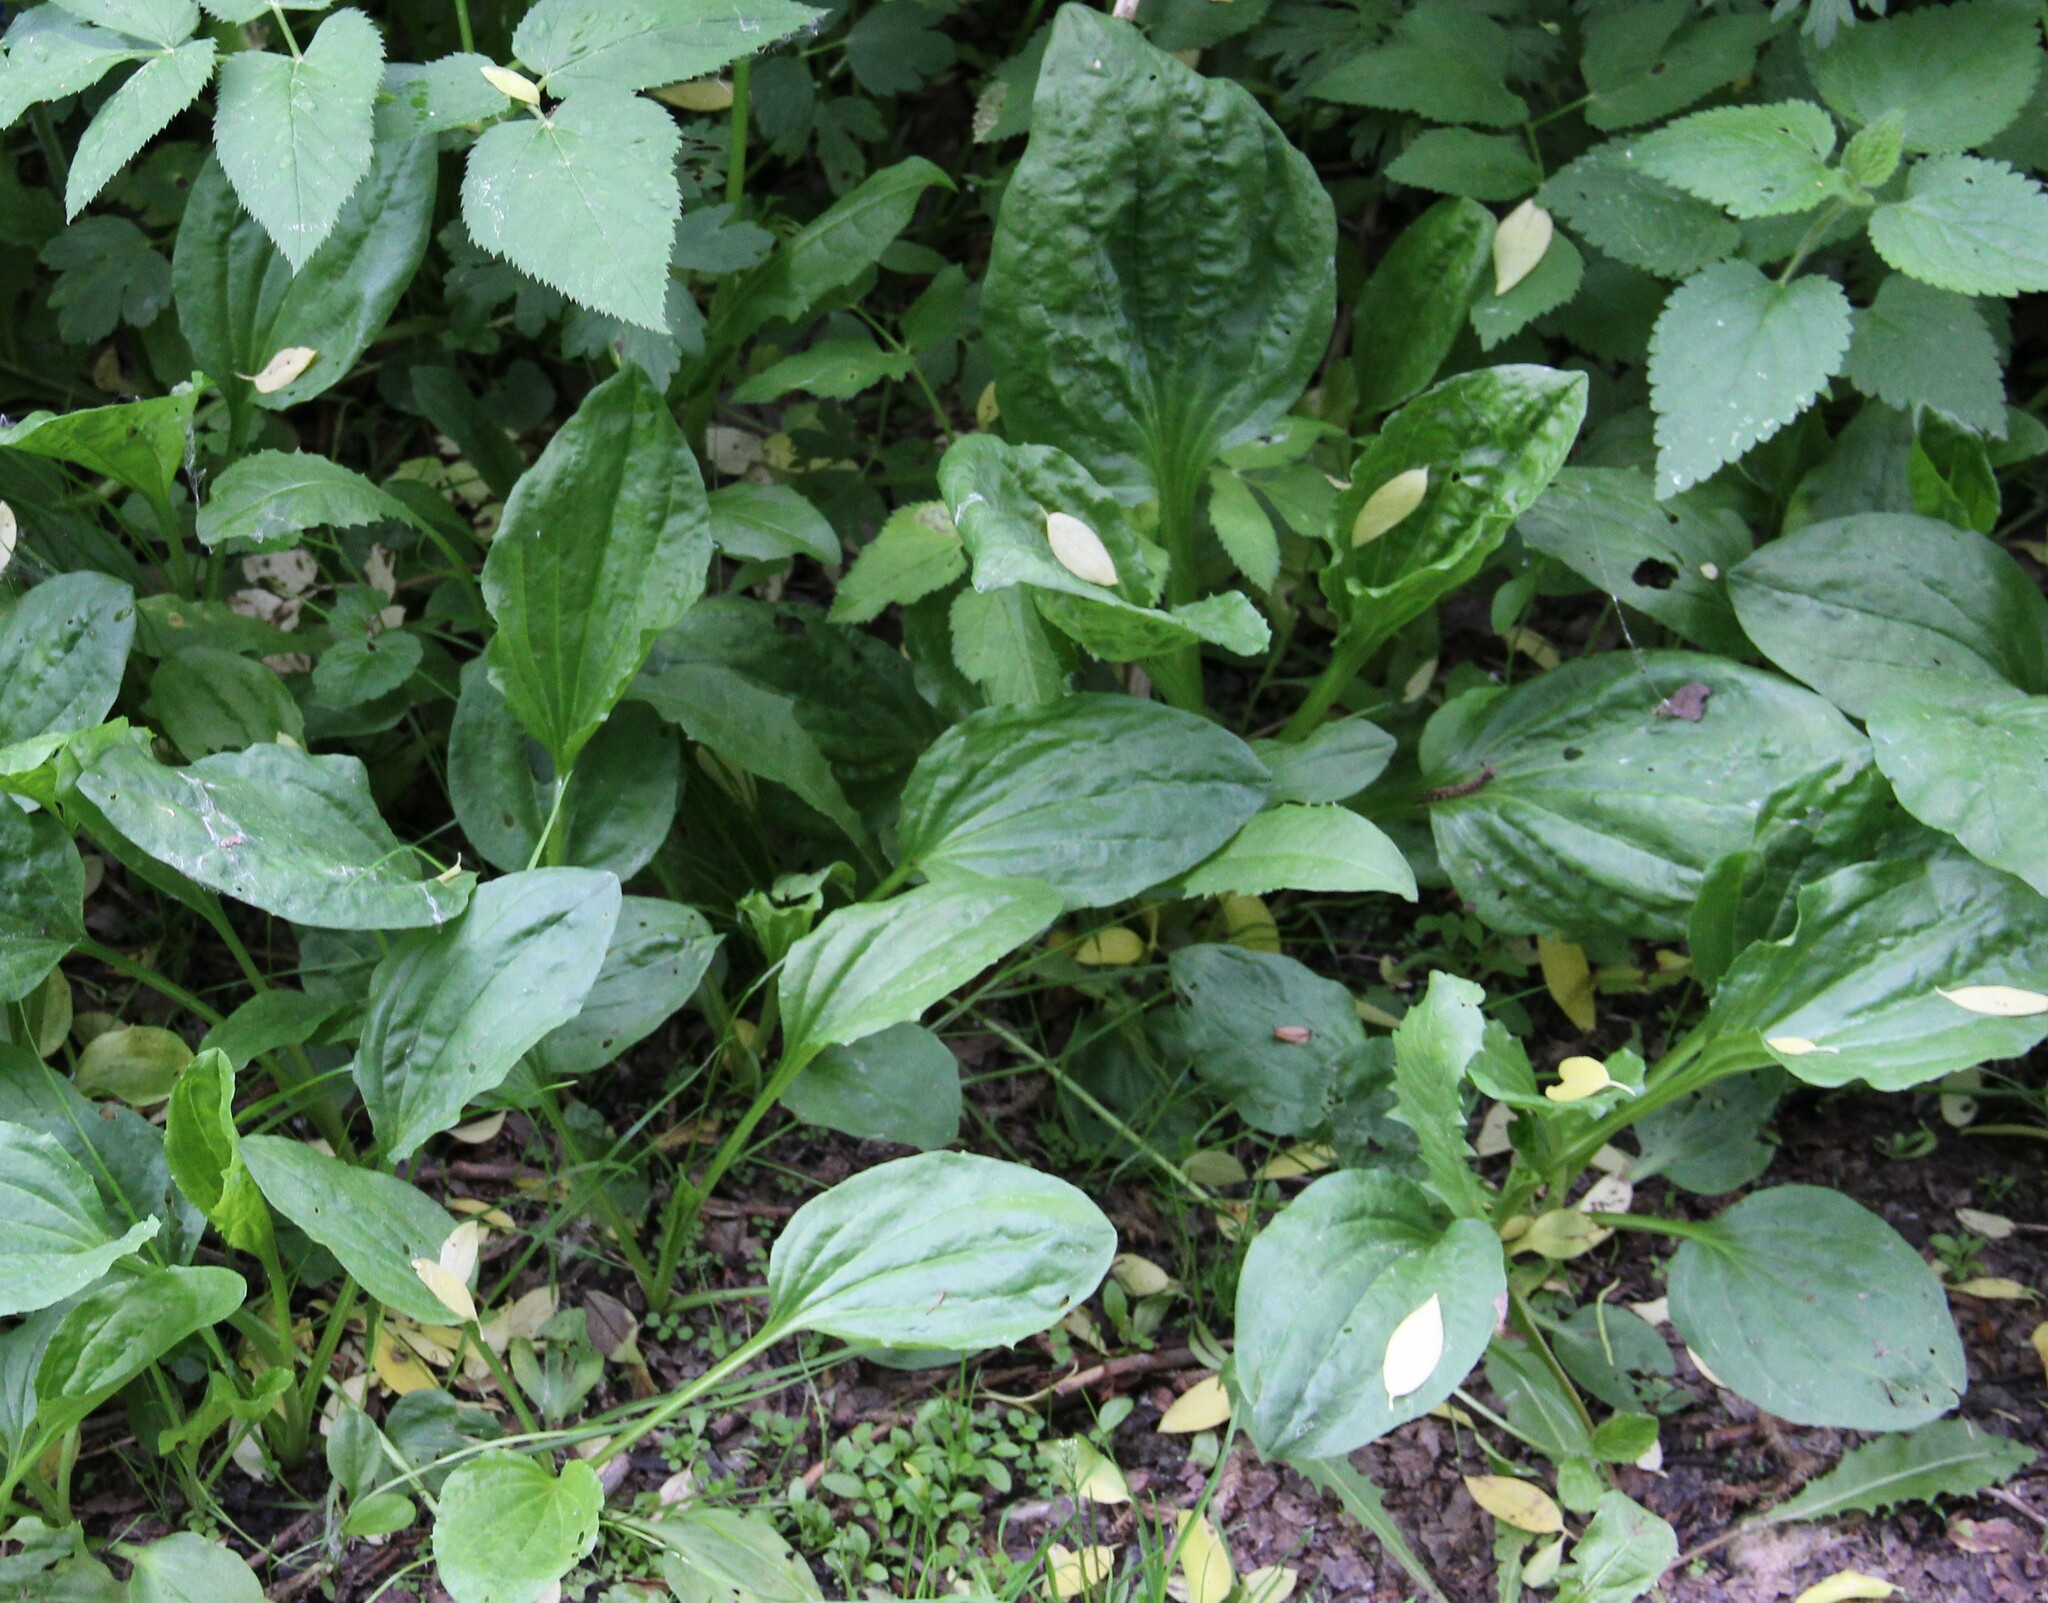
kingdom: Plantae
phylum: Tracheophyta
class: Magnoliopsida
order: Lamiales
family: Plantaginaceae
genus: Plantago
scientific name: Plantago major
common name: Common plantain
